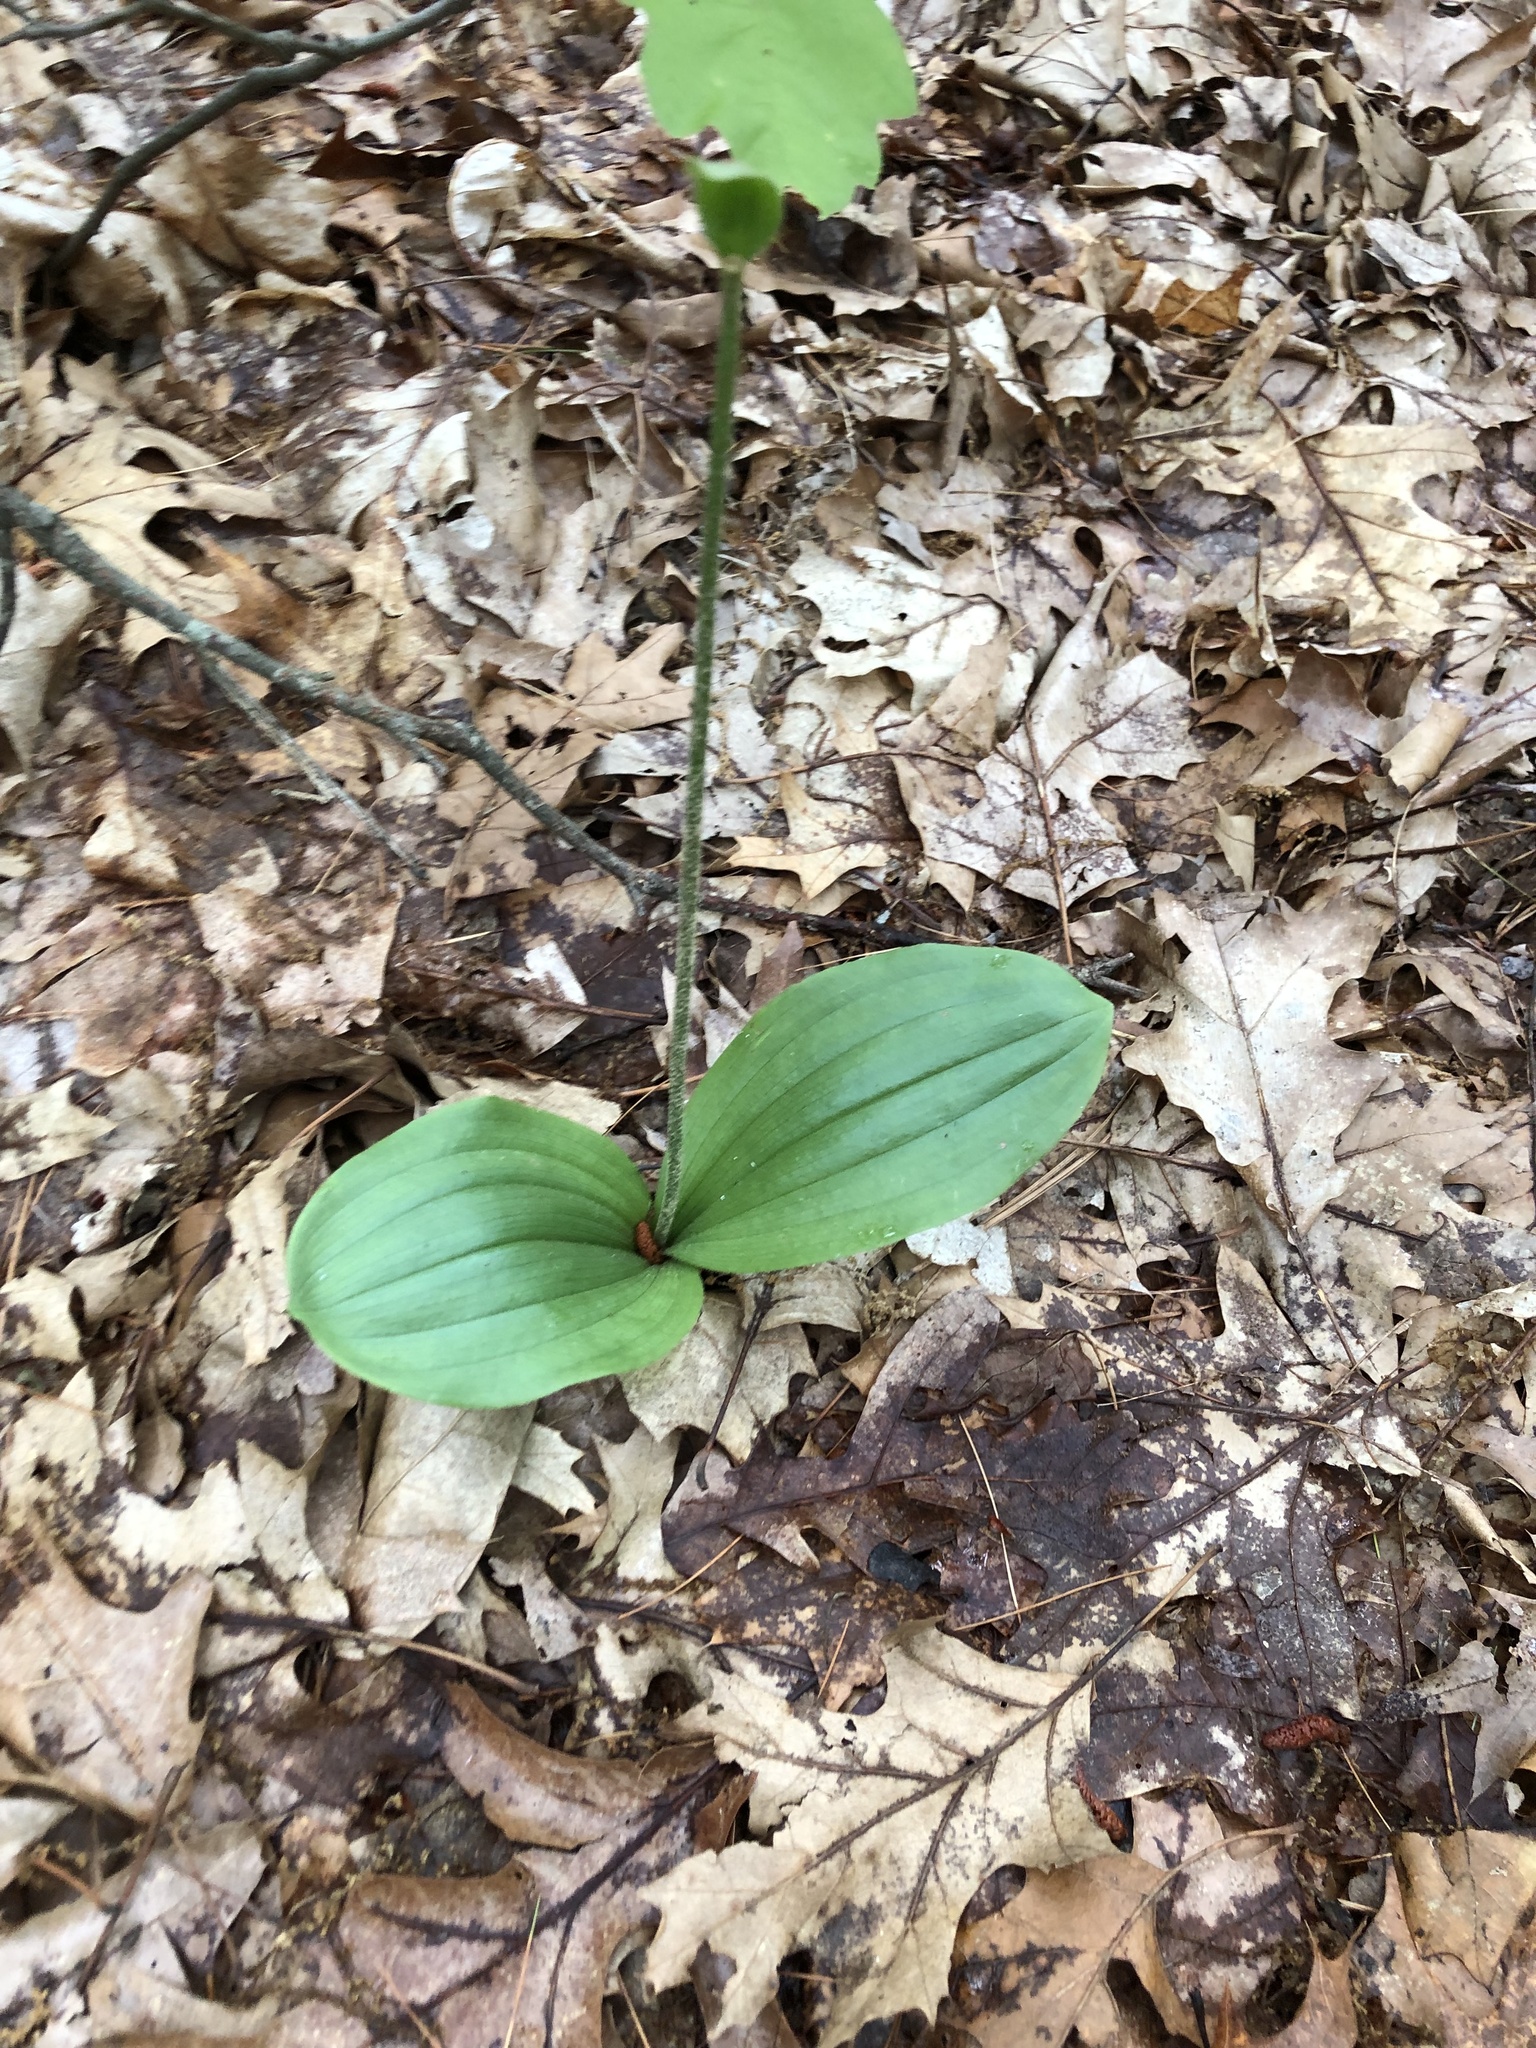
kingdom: Plantae
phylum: Tracheophyta
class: Liliopsida
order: Asparagales
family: Orchidaceae
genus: Cypripedium
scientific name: Cypripedium acaule
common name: Pink lady's-slipper
